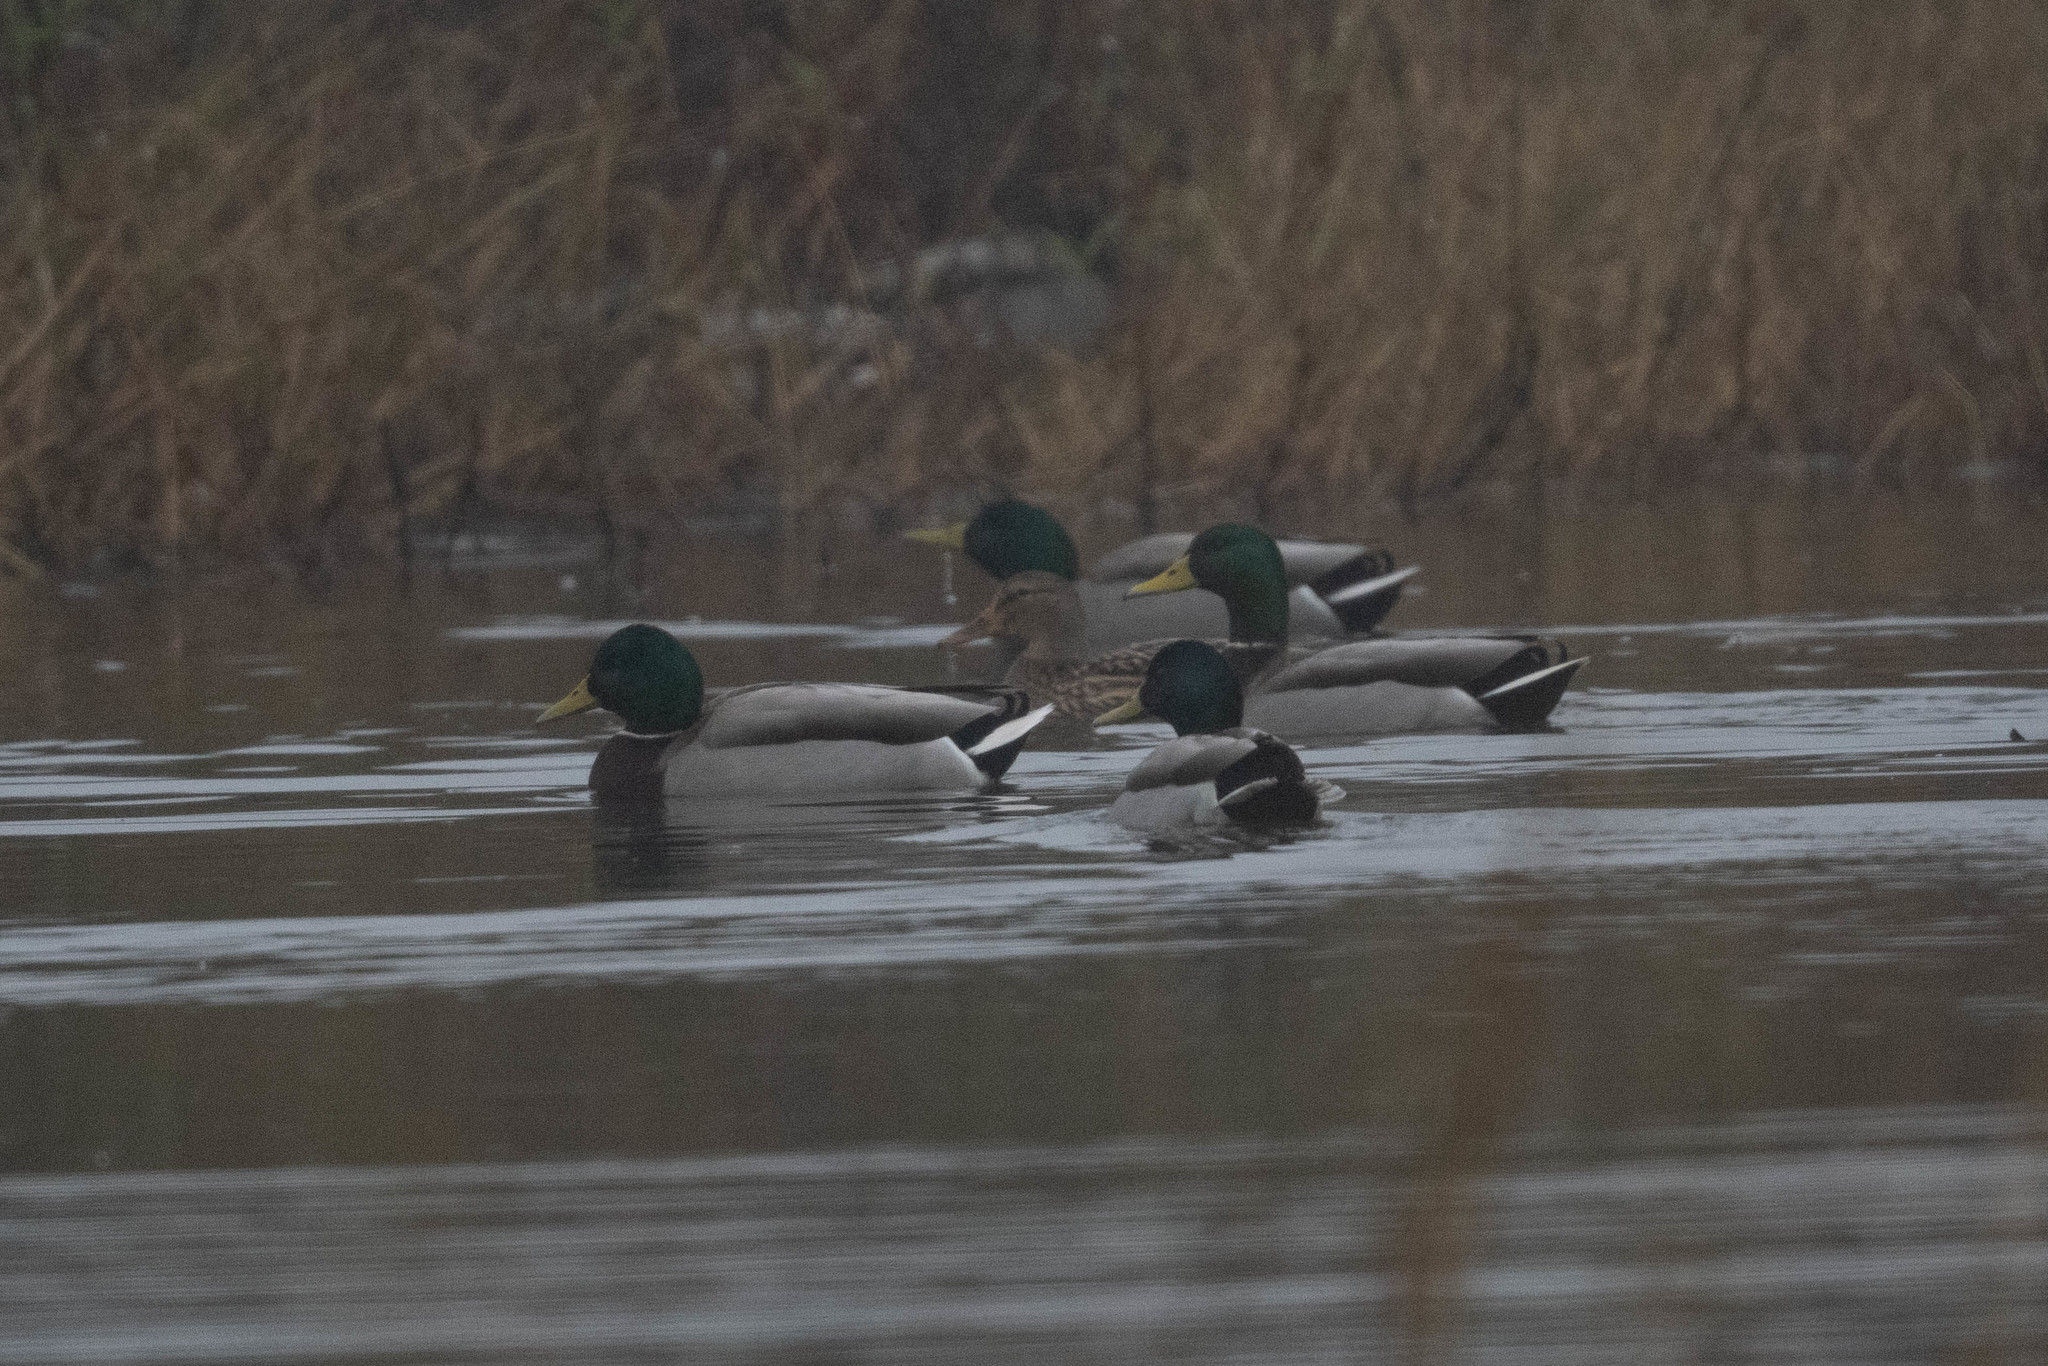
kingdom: Animalia
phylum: Chordata
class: Aves
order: Anseriformes
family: Anatidae
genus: Anas
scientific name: Anas platyrhynchos
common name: Mallard
